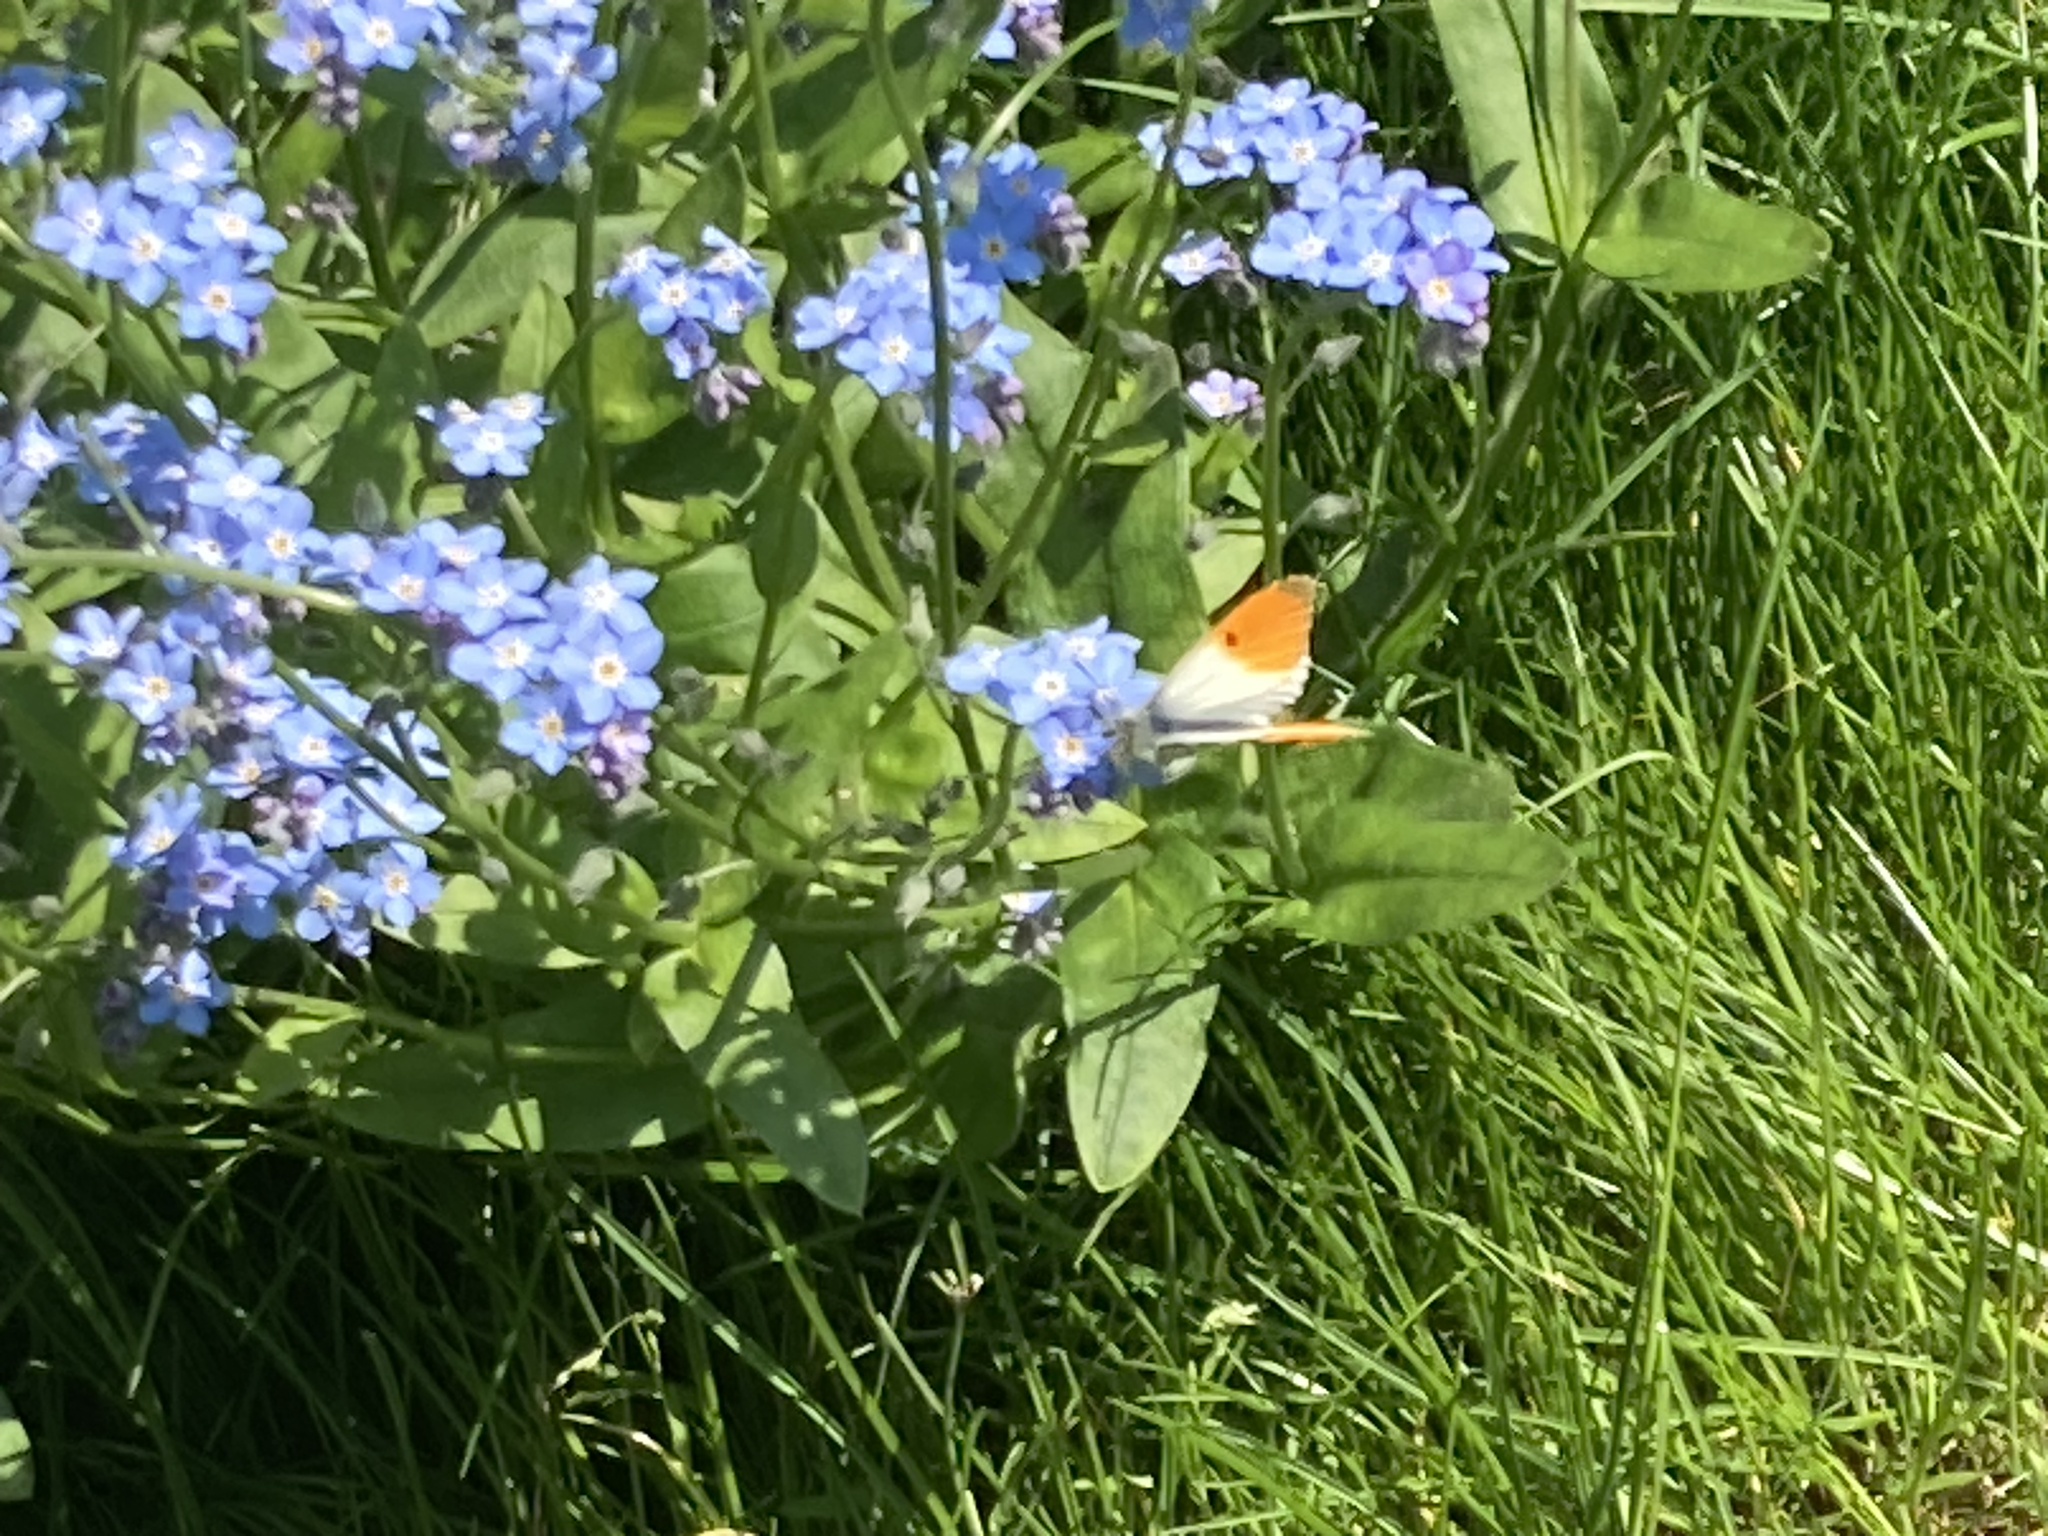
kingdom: Animalia
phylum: Arthropoda
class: Insecta
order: Lepidoptera
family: Pieridae
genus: Anthocharis
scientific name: Anthocharis cardamines
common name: Orange-tip
